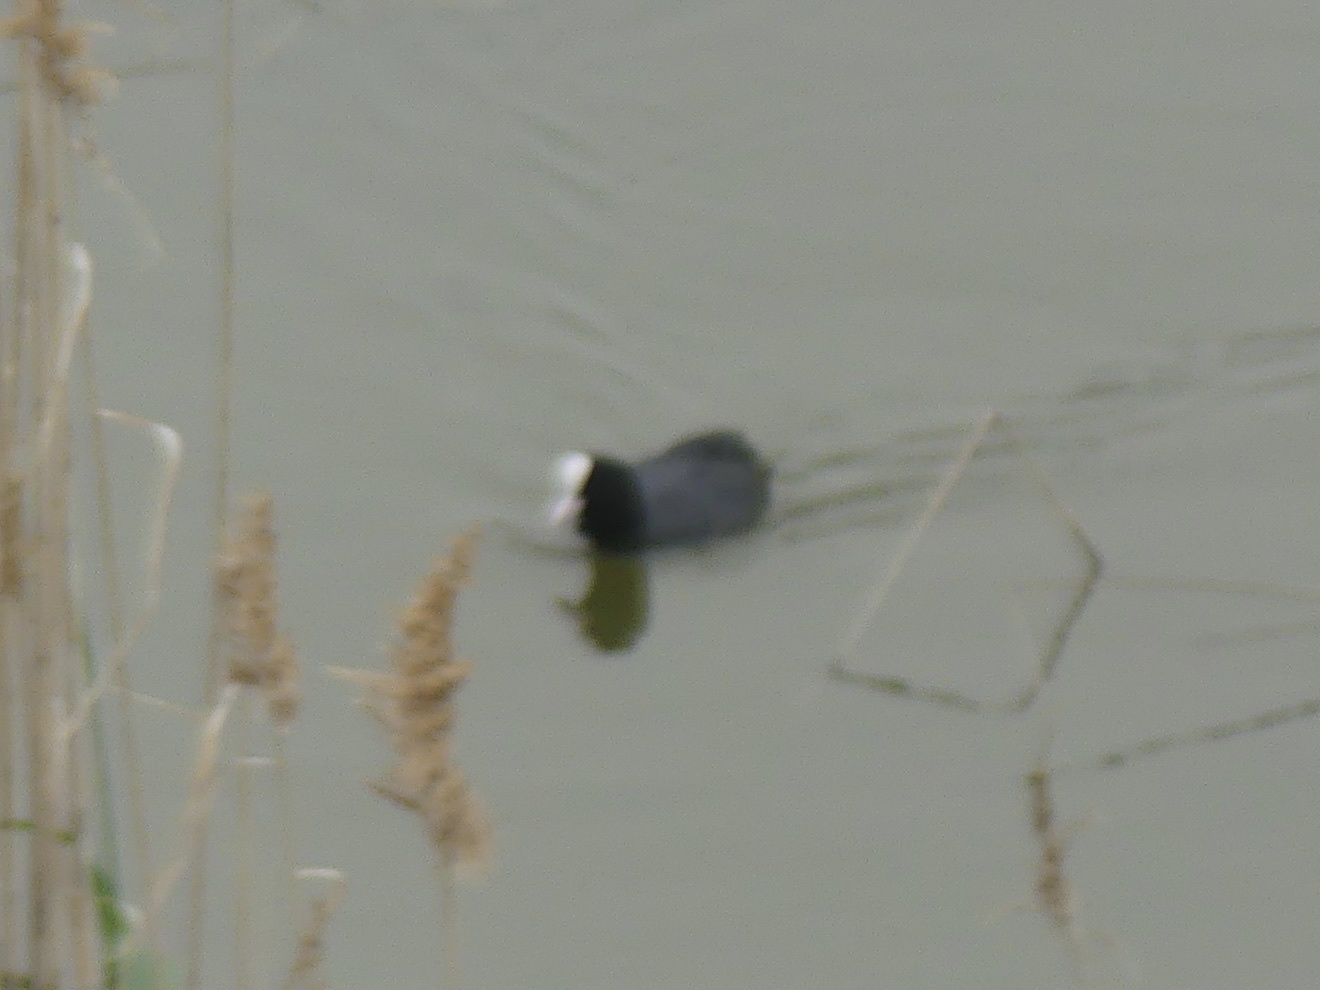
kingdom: Animalia
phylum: Chordata
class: Aves
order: Gruiformes
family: Rallidae
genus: Fulica
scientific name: Fulica atra
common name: Eurasian coot
